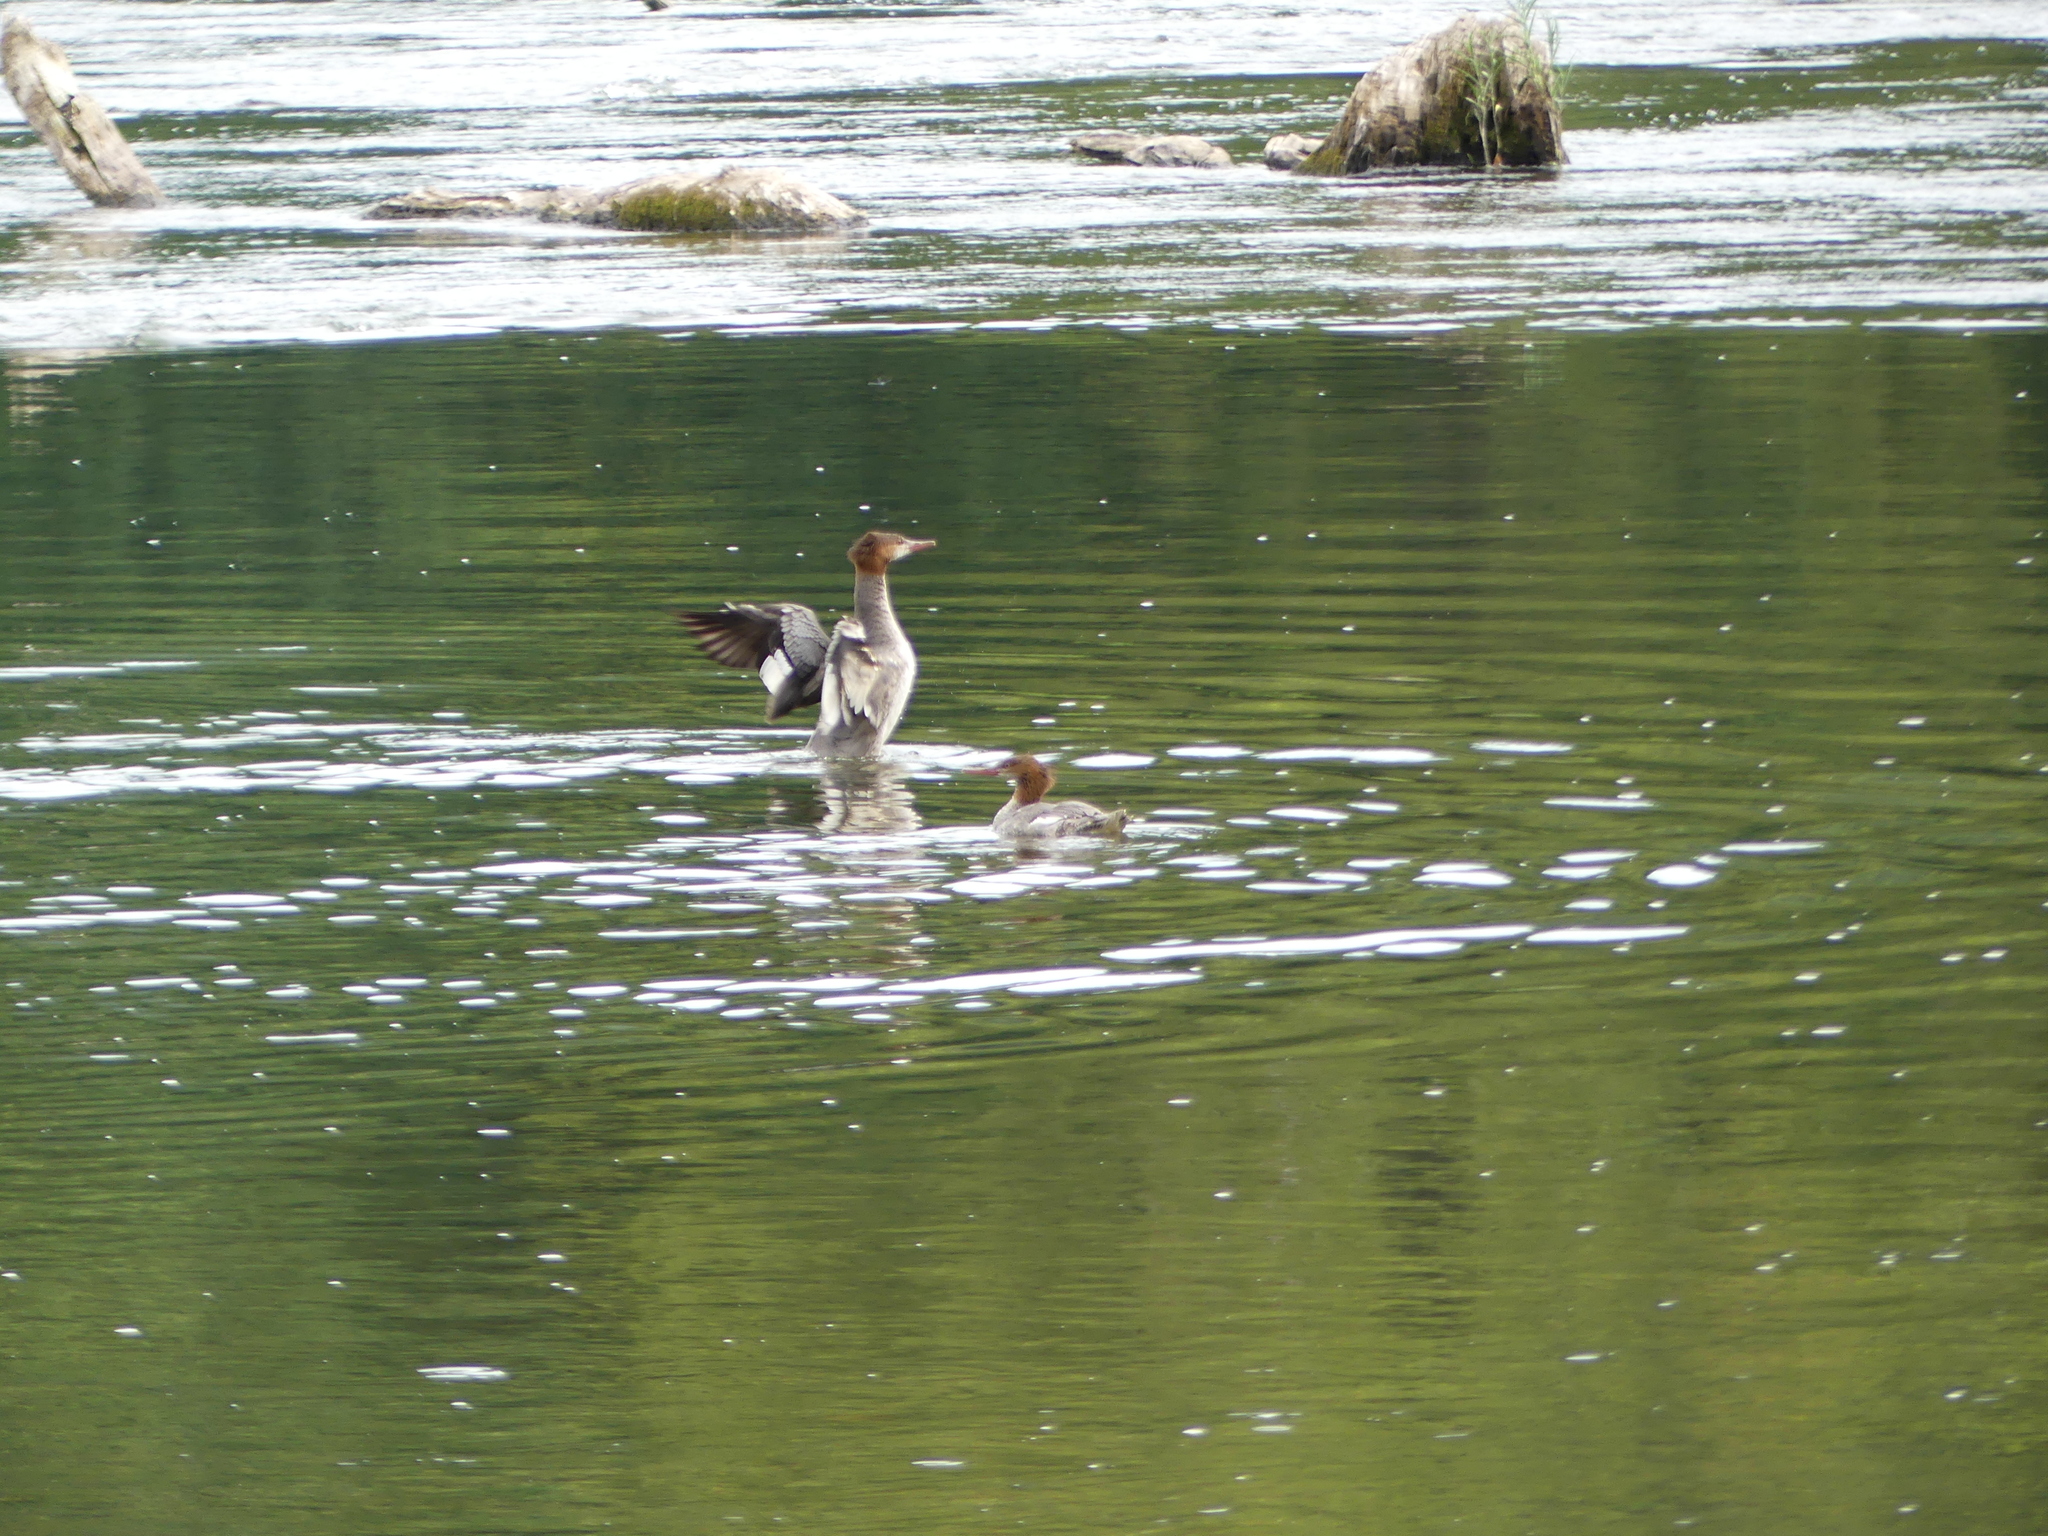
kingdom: Animalia
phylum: Chordata
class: Aves
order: Anseriformes
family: Anatidae
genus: Mergus
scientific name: Mergus merganser
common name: Common merganser
